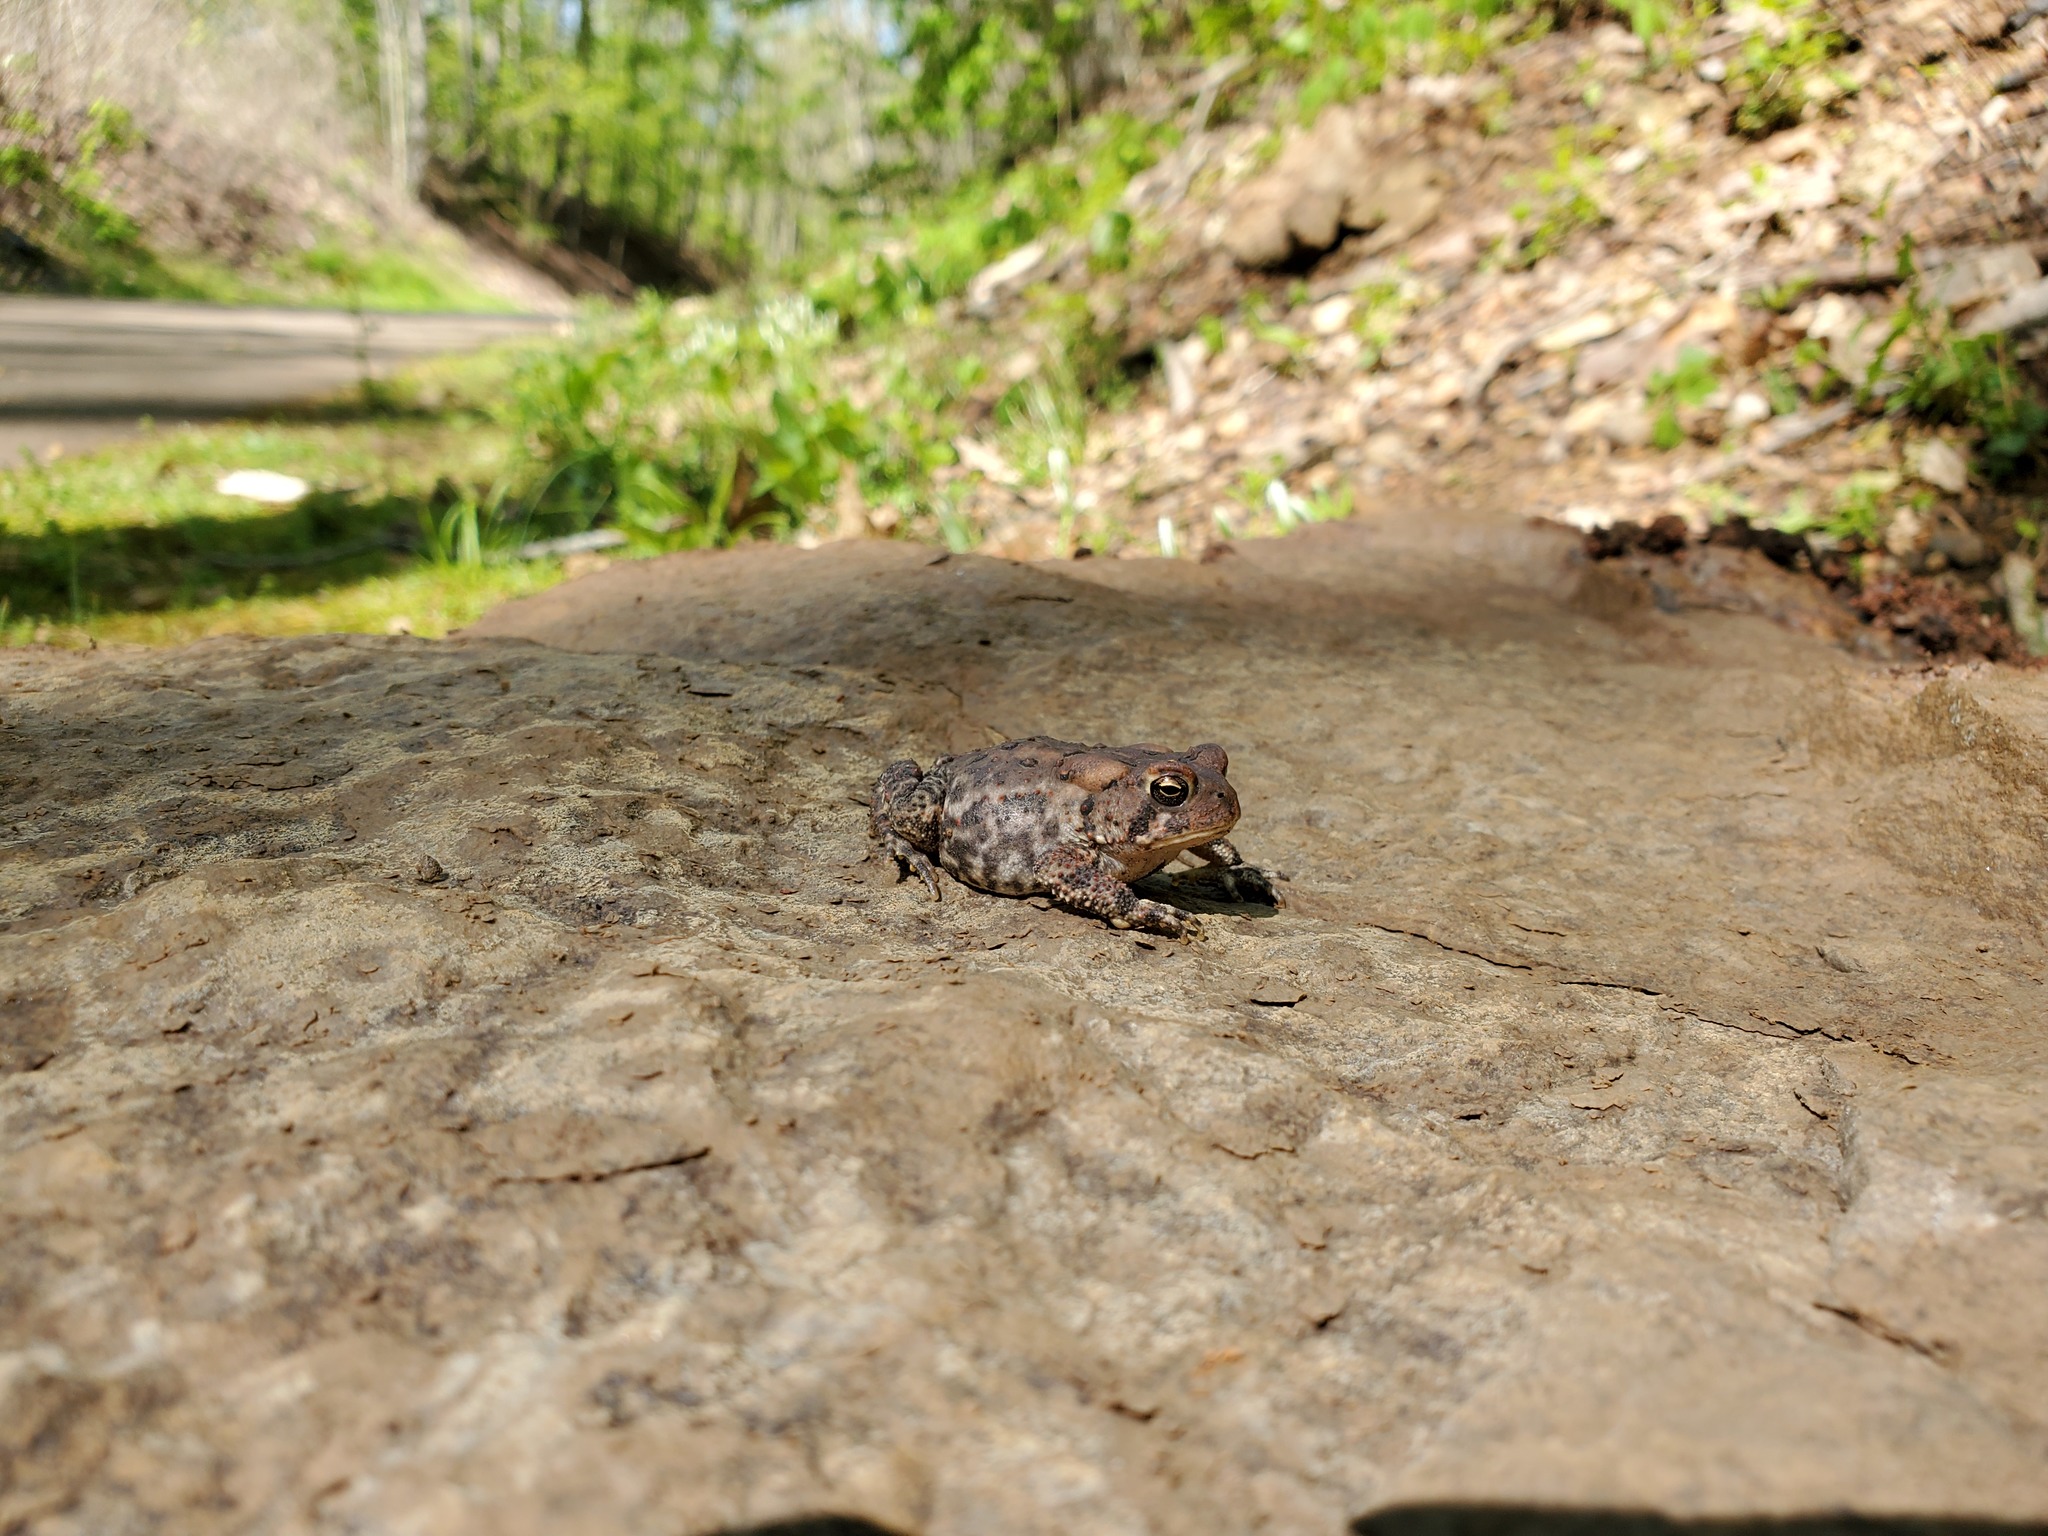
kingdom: Animalia
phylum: Chordata
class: Amphibia
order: Anura
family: Bufonidae
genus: Anaxyrus
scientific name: Anaxyrus americanus
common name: American toad
